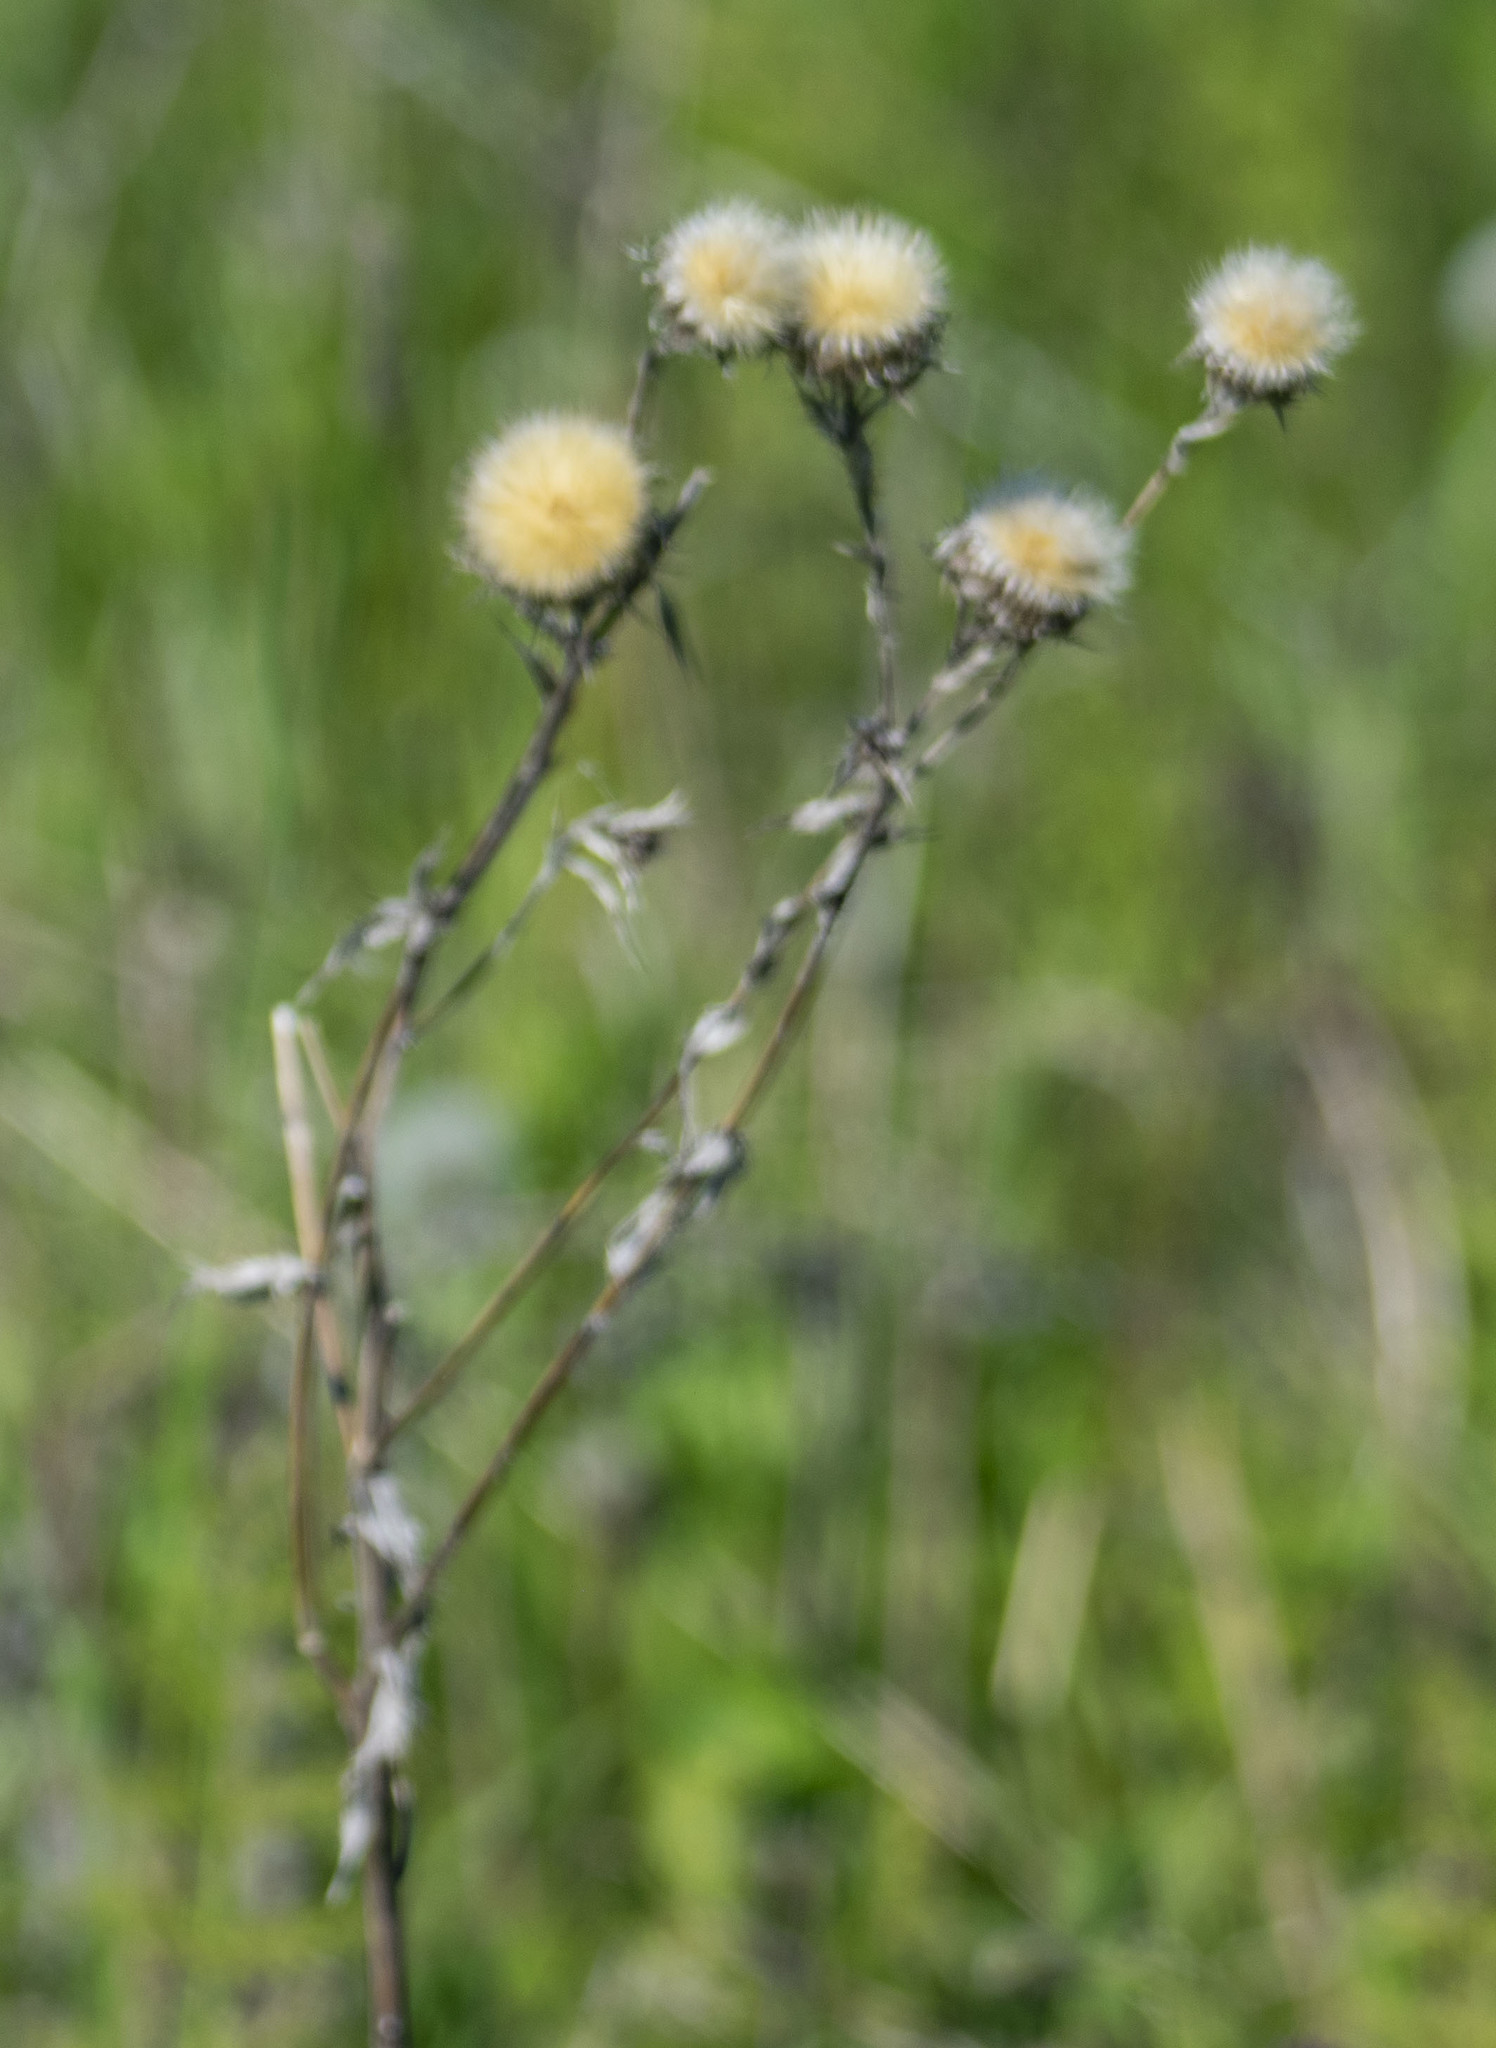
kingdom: Plantae
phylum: Tracheophyta
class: Magnoliopsida
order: Asterales
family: Asteraceae
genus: Carlina
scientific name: Carlina biebersteinii
